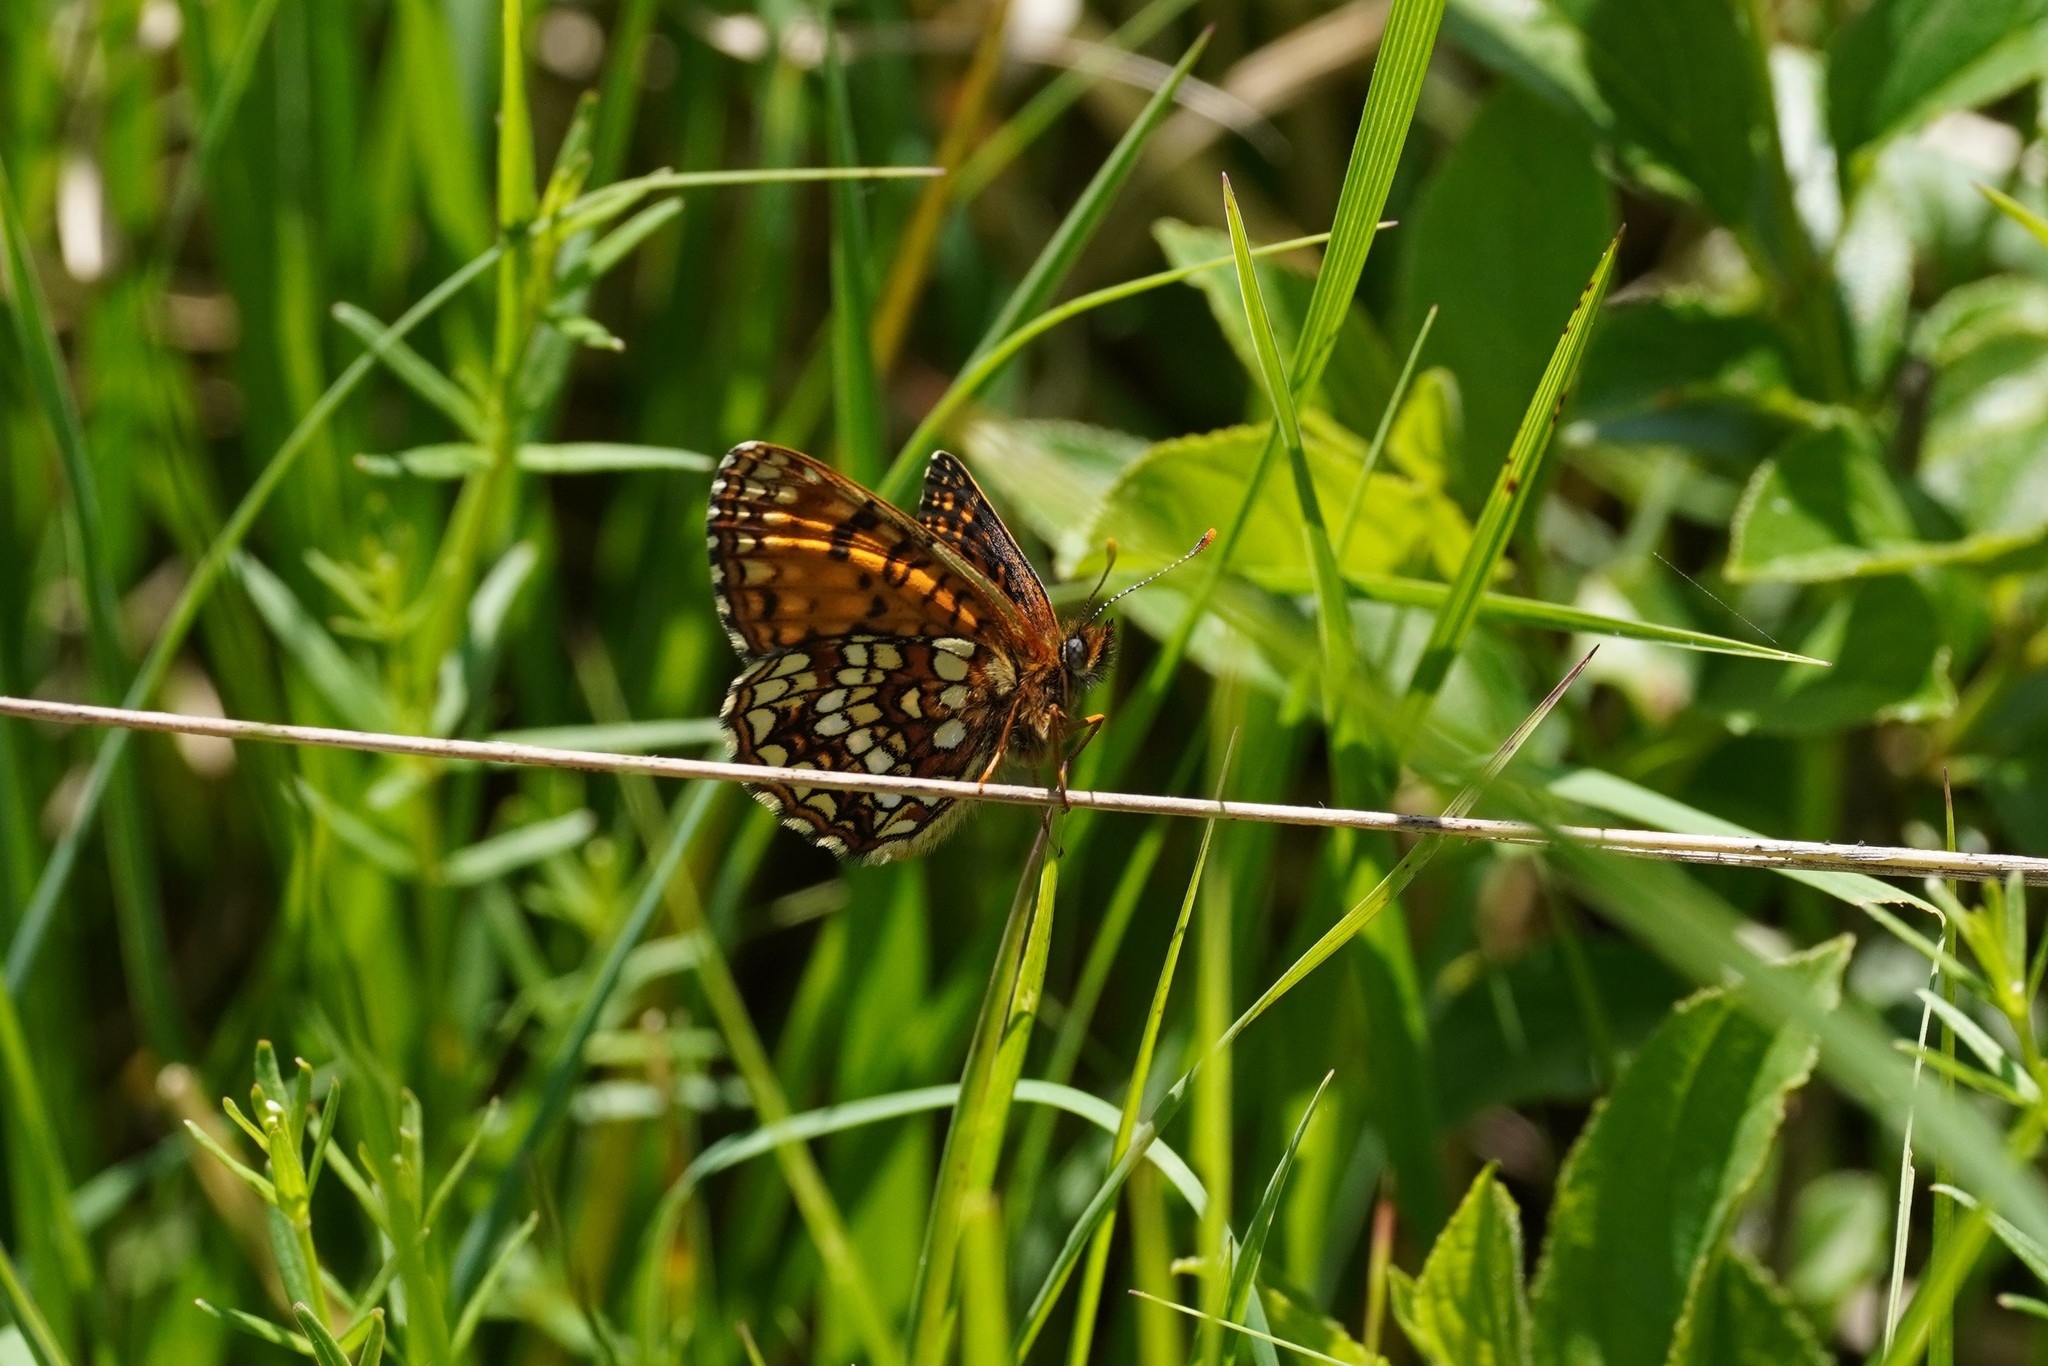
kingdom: Animalia
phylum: Arthropoda
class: Insecta
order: Lepidoptera
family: Nymphalidae
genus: Melitaea
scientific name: Melitaea diamina
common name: False heath fritillary
